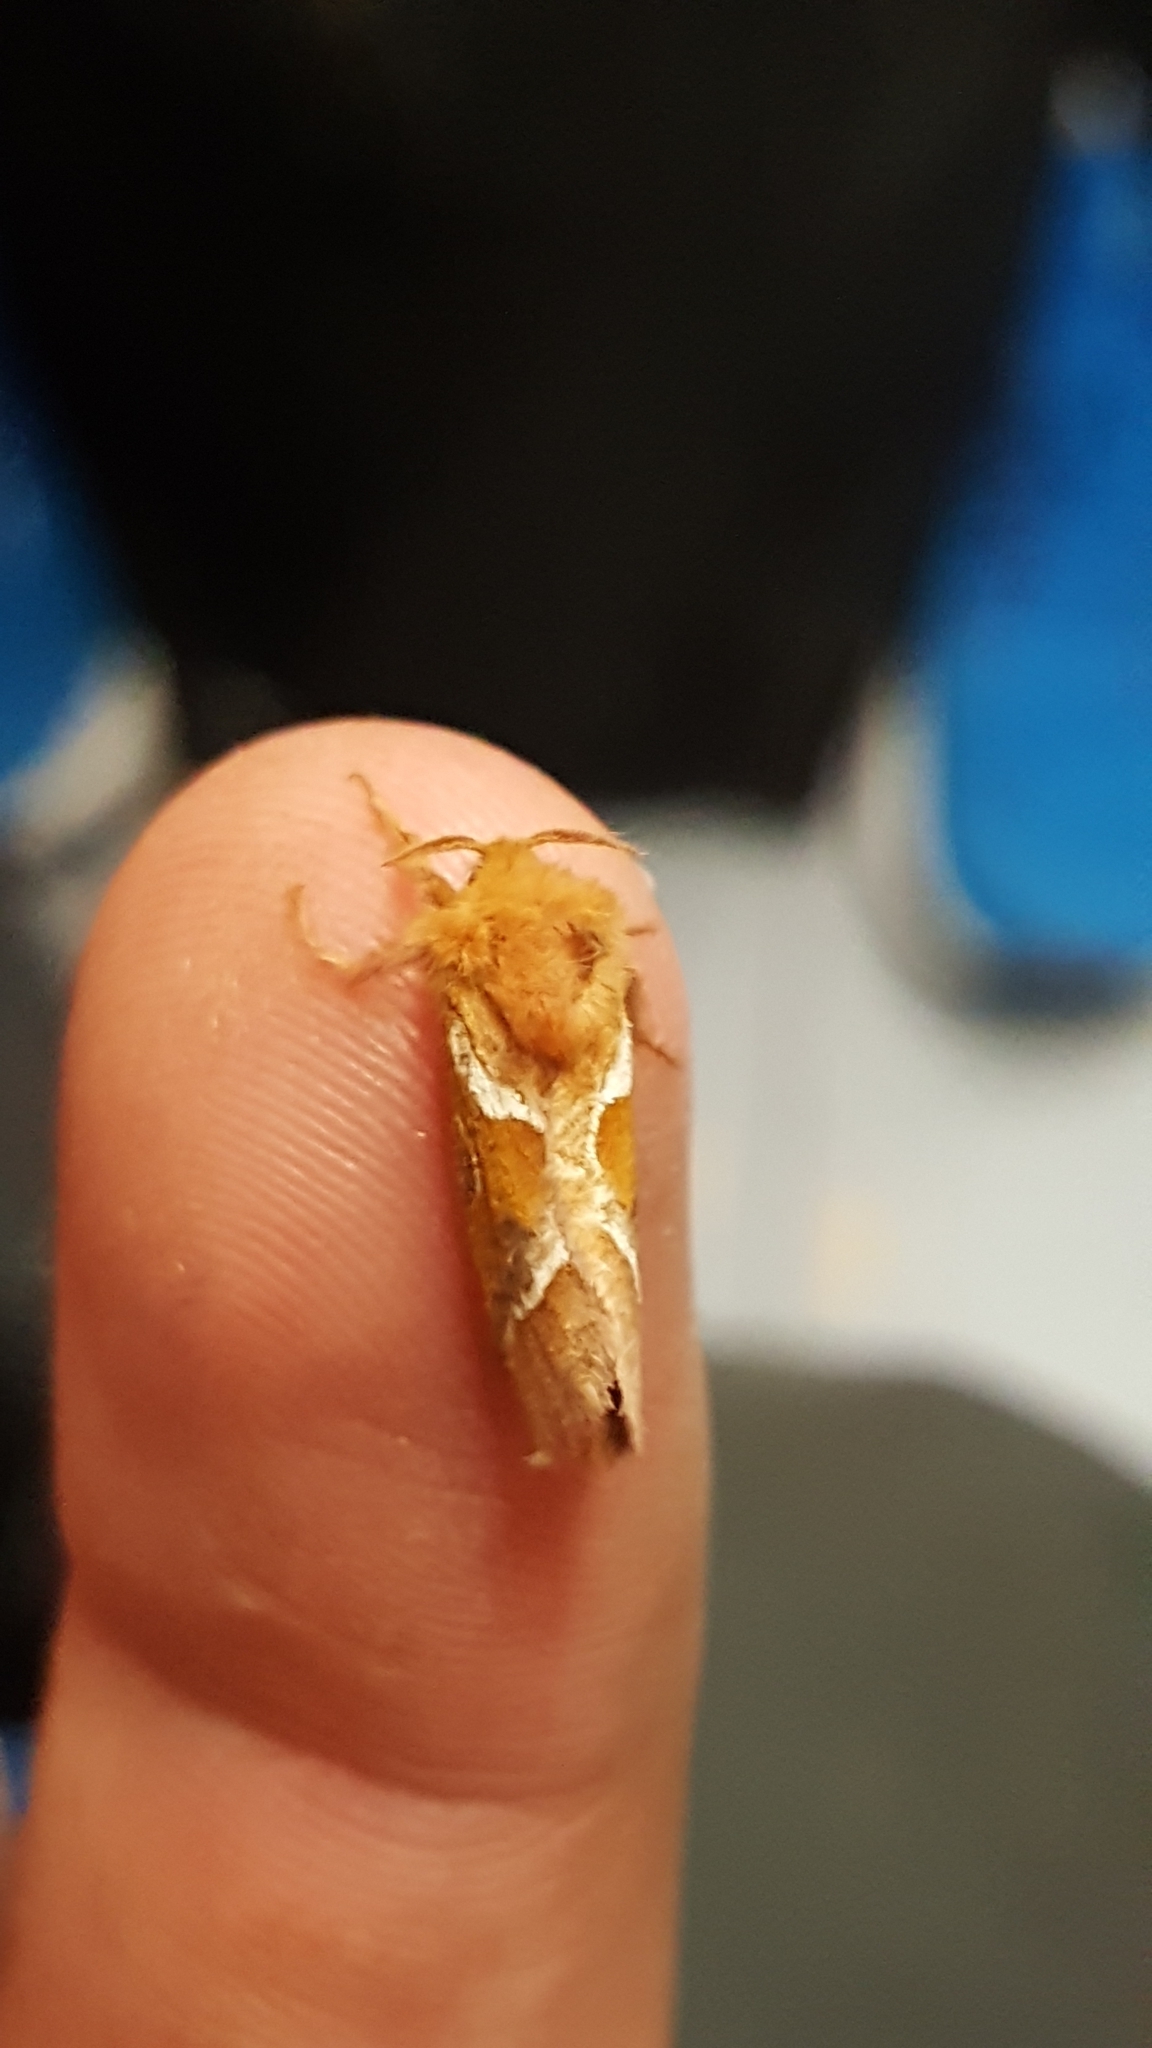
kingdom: Animalia
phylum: Arthropoda
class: Insecta
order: Lepidoptera
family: Hepialidae
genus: Triodia
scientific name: Triodia sylvina
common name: Orange swift
